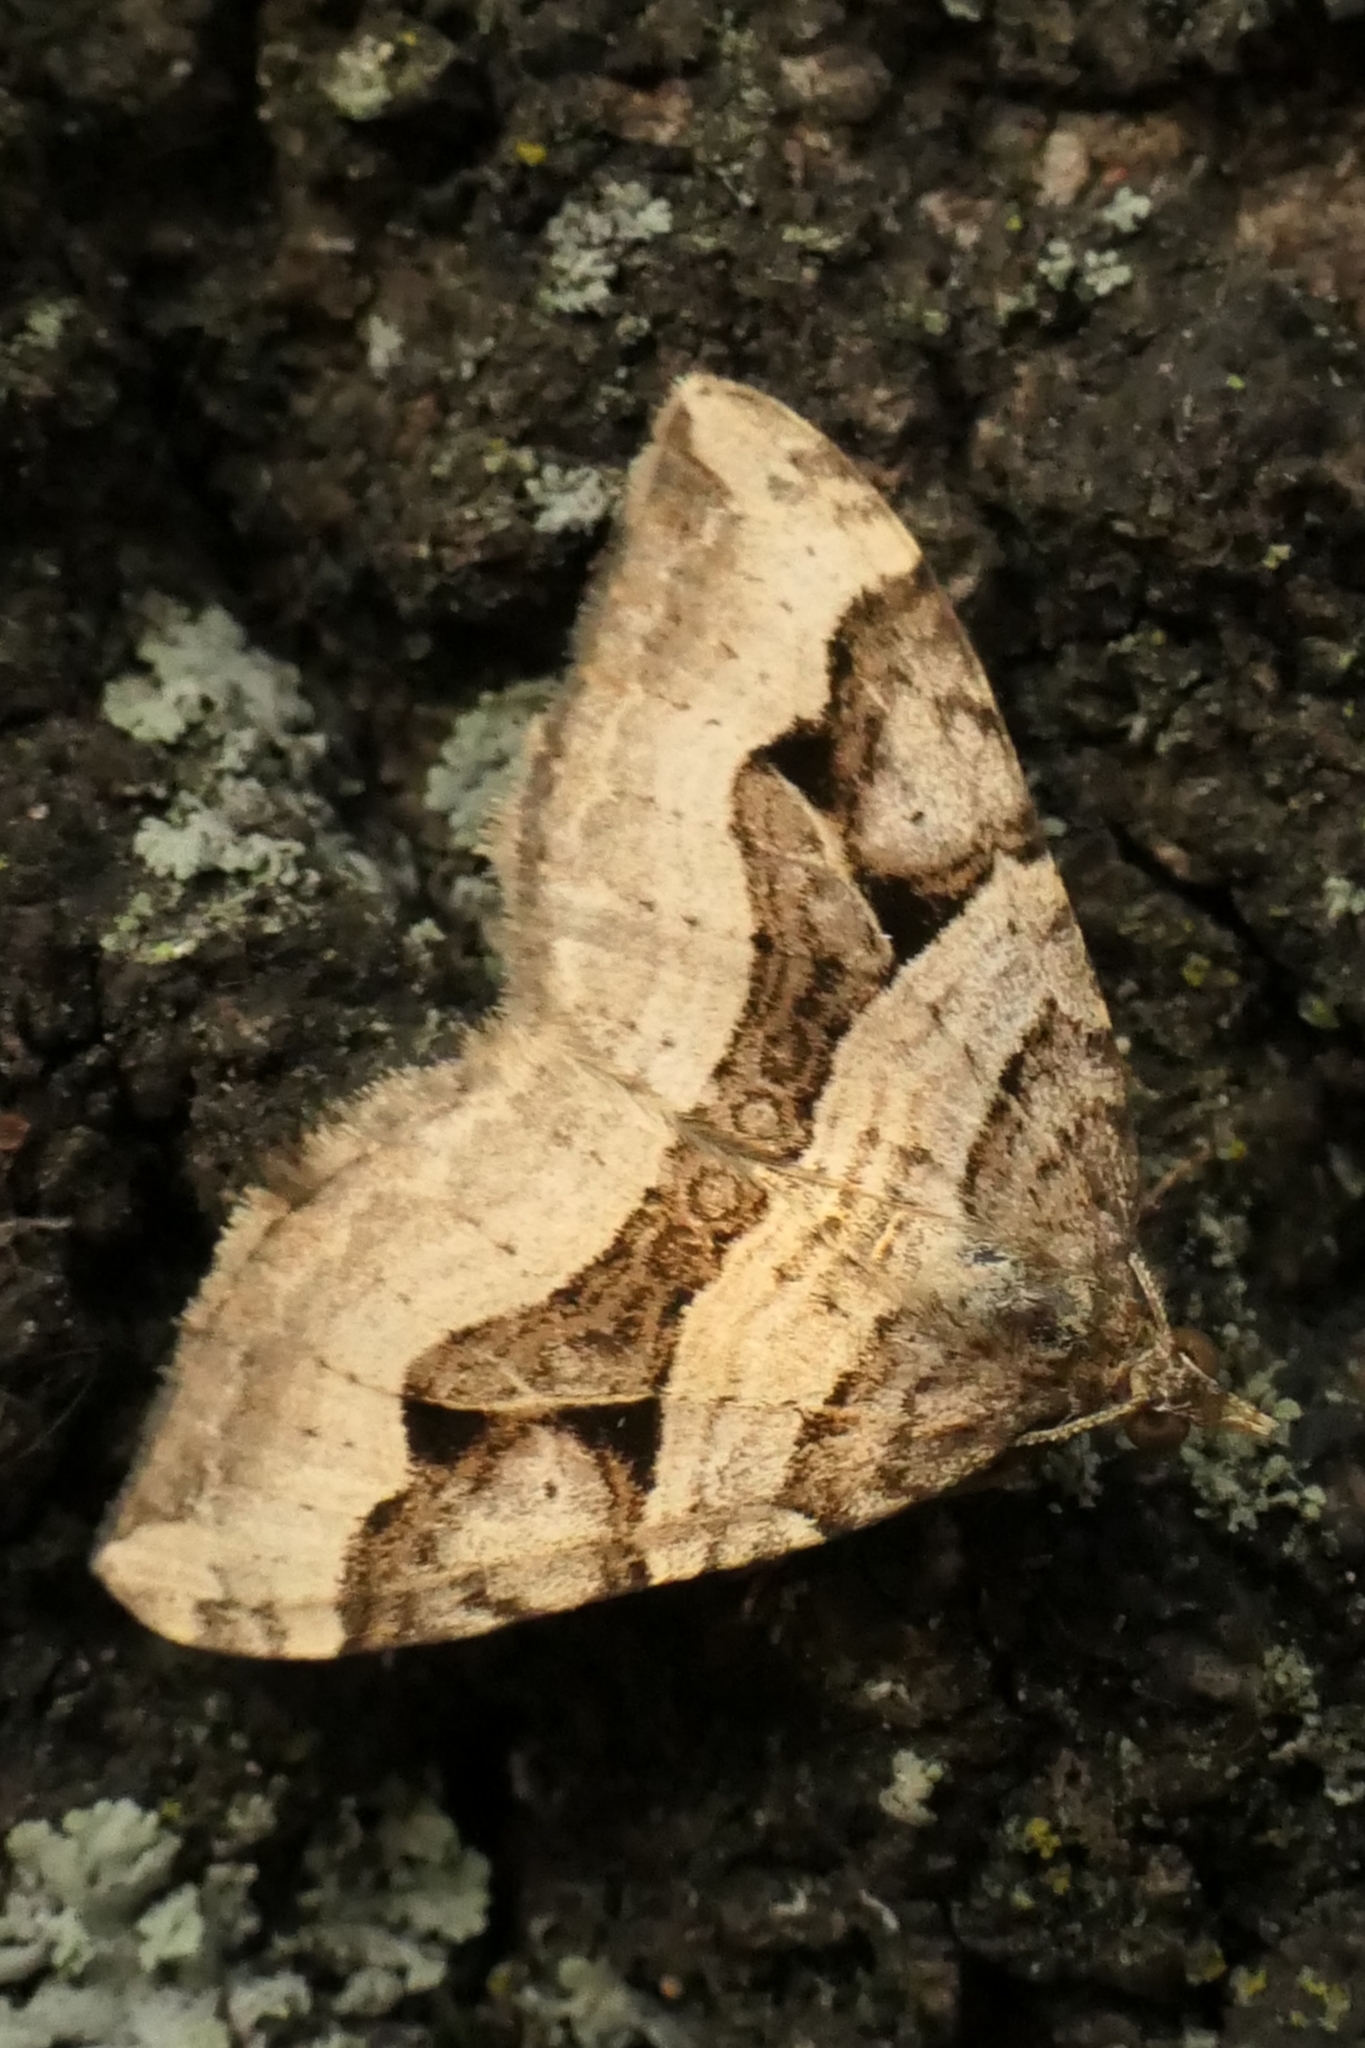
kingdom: Animalia
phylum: Arthropoda
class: Insecta
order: Lepidoptera
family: Geometridae
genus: Xanthorhoe
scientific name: Xanthorhoe semifissata
